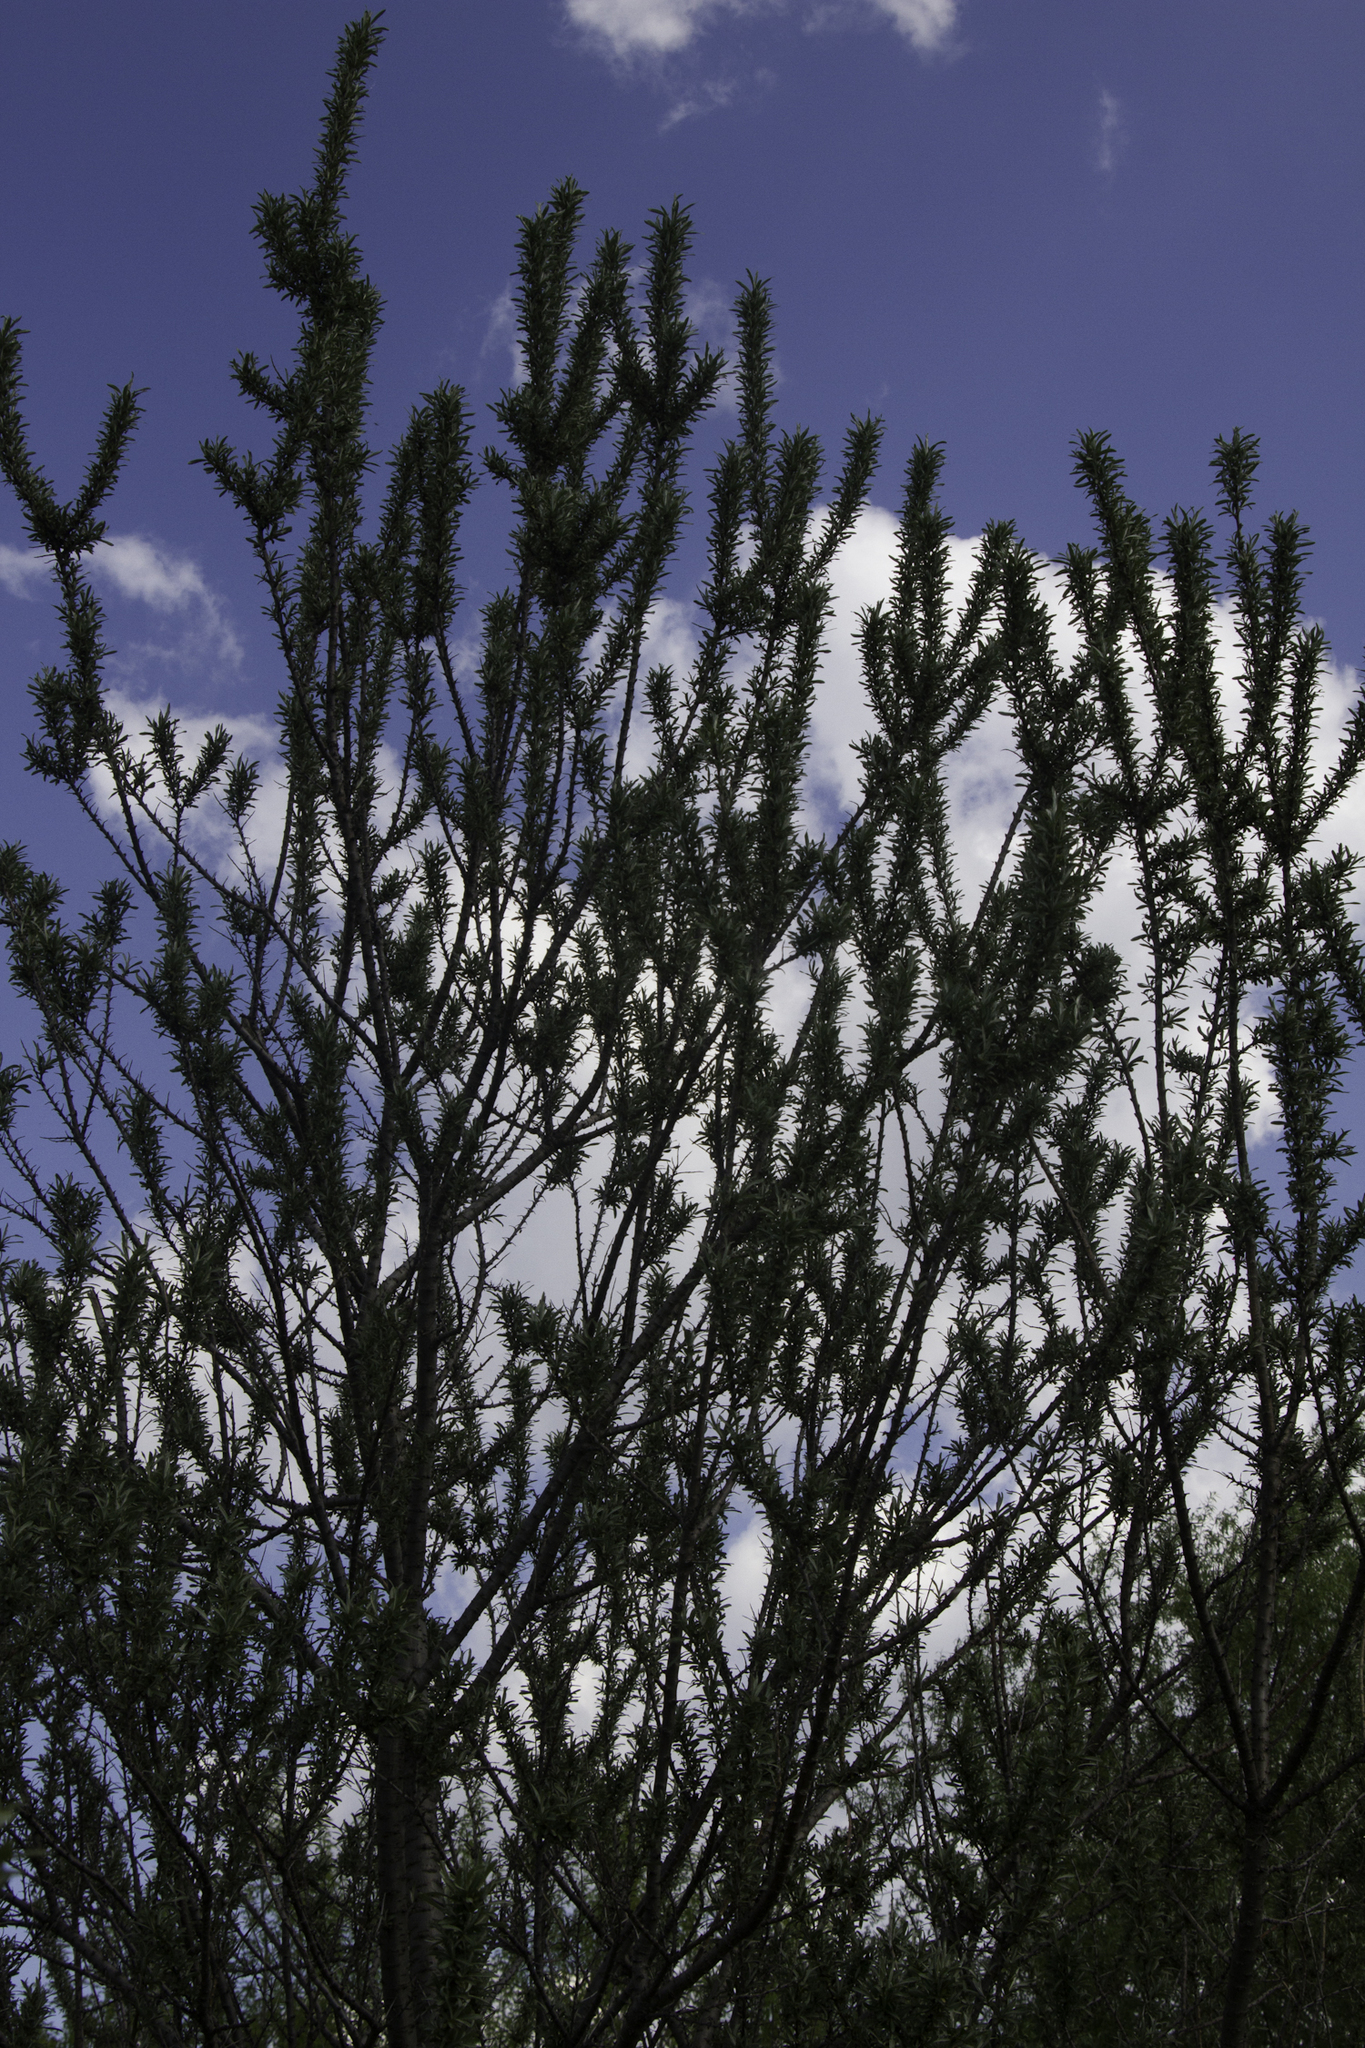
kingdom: Plantae
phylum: Tracheophyta
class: Magnoliopsida
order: Rosales
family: Elaeagnaceae
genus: Hippophae
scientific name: Hippophae rhamnoides
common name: Sea-buckthorn
